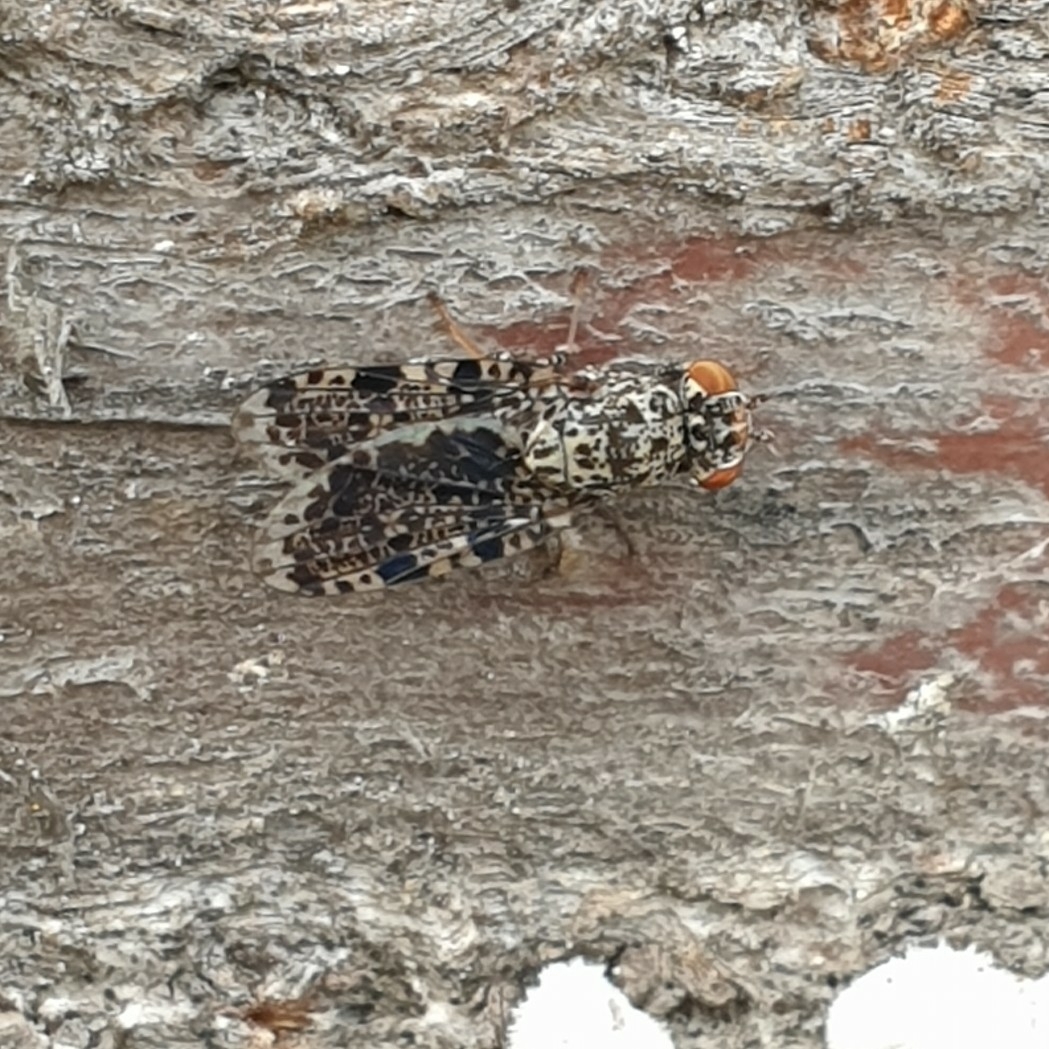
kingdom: Animalia
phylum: Arthropoda
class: Insecta
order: Diptera
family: Ulidiidae
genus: Callopistromyia
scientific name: Callopistromyia annulipes
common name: Peacock fly
